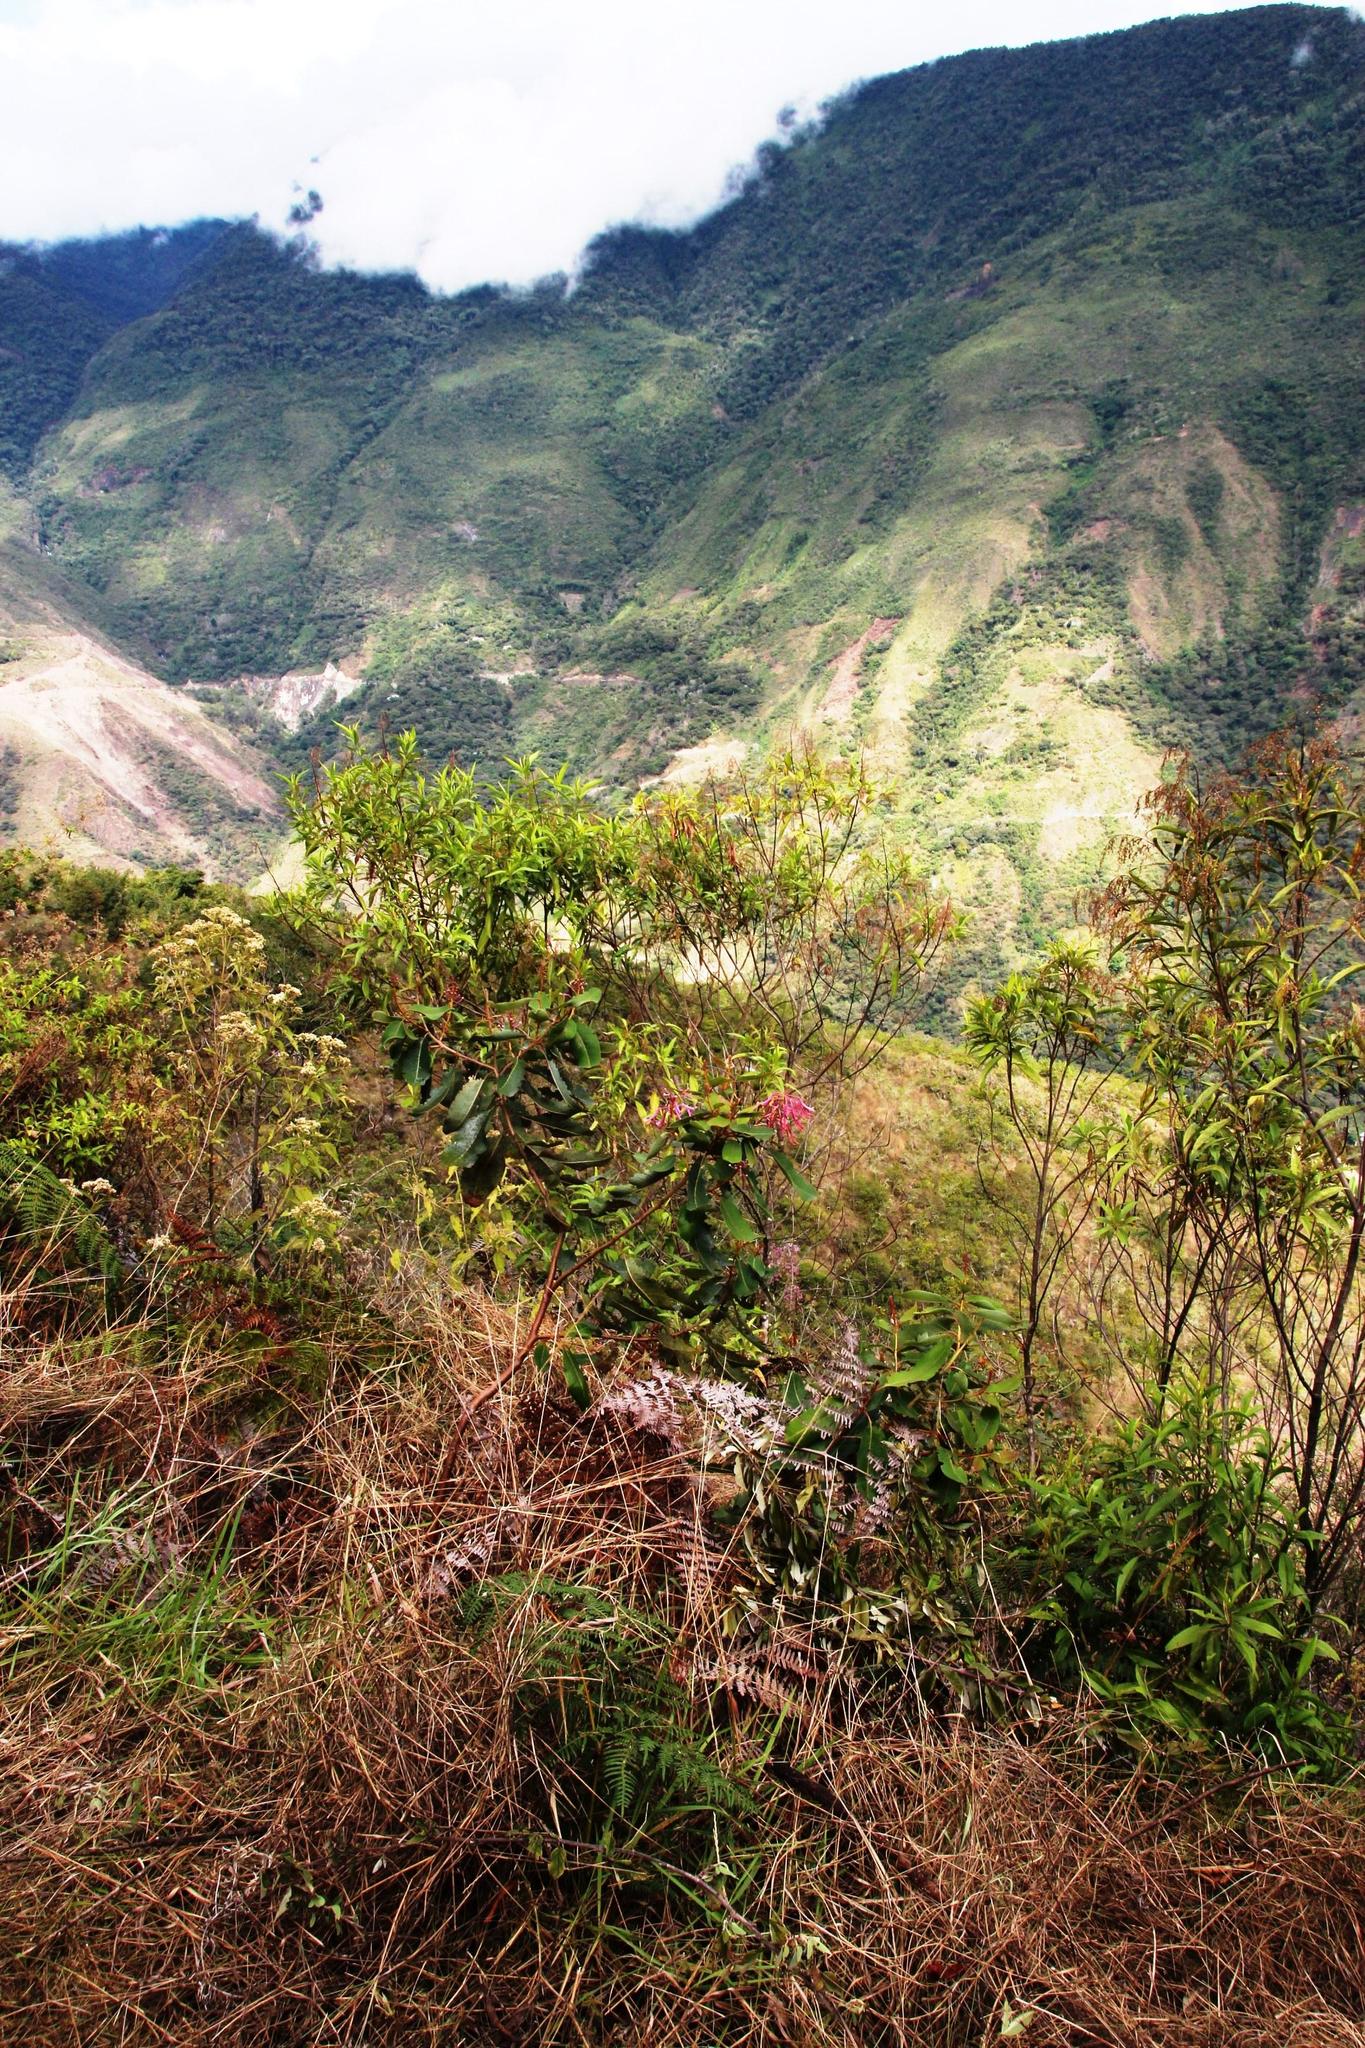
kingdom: Plantae
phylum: Tracheophyta
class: Magnoliopsida
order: Proteales
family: Proteaceae
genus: Oreocallis
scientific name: Oreocallis grandiflora
